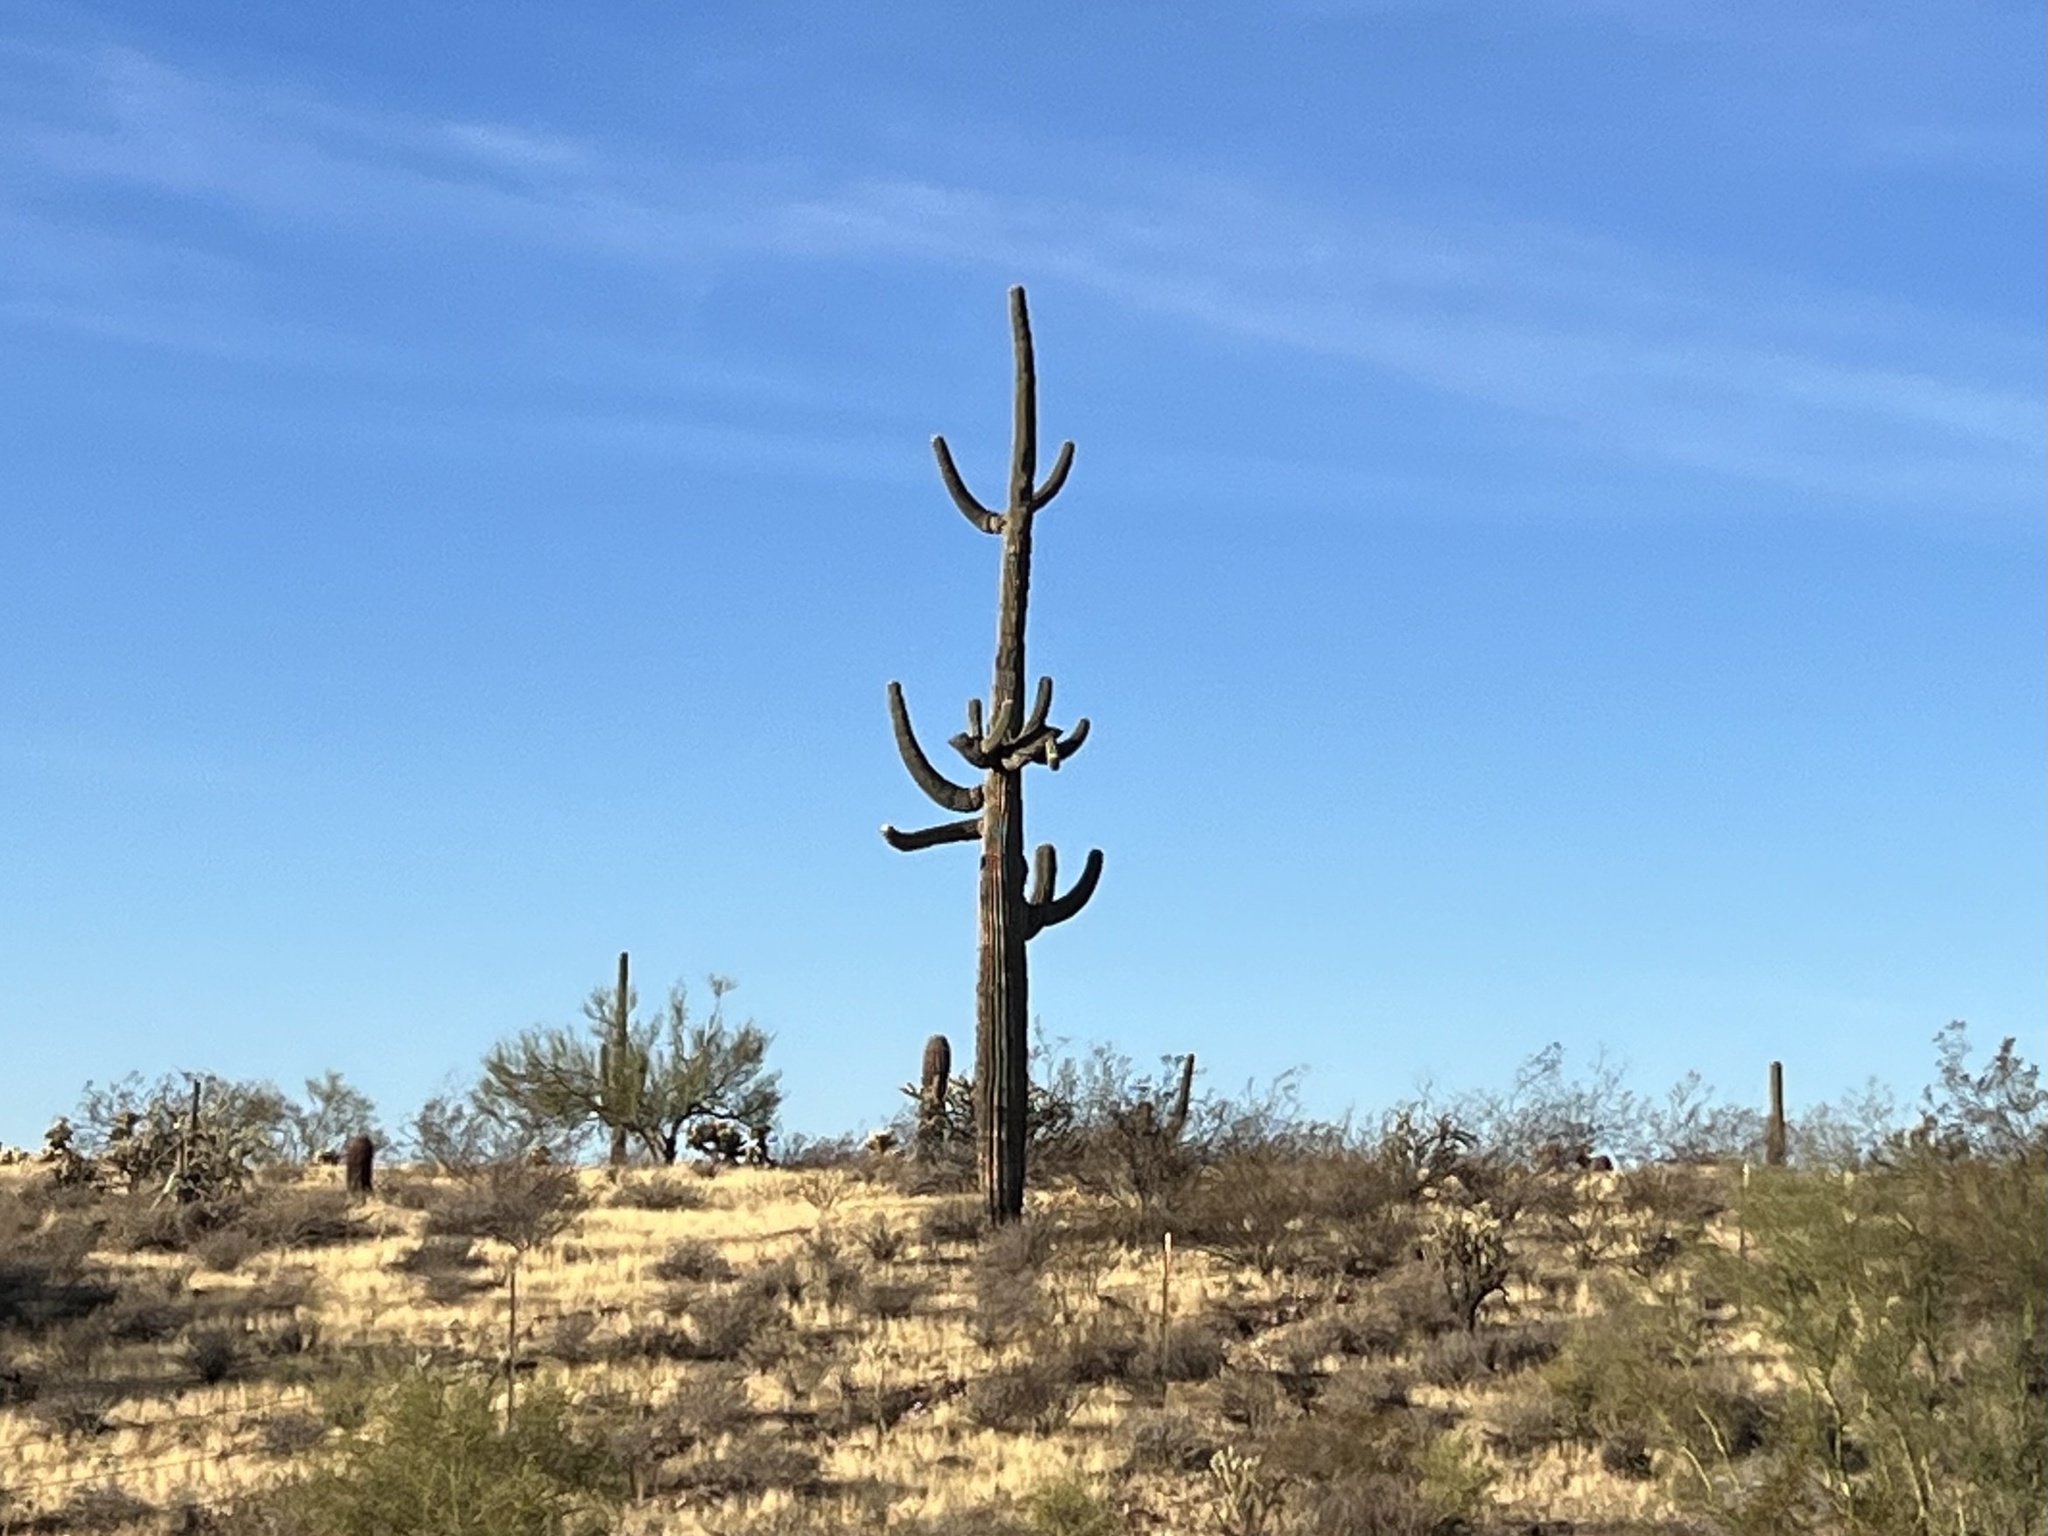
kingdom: Plantae
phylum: Tracheophyta
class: Magnoliopsida
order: Caryophyllales
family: Cactaceae
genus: Carnegiea
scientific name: Carnegiea gigantea
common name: Saguaro
